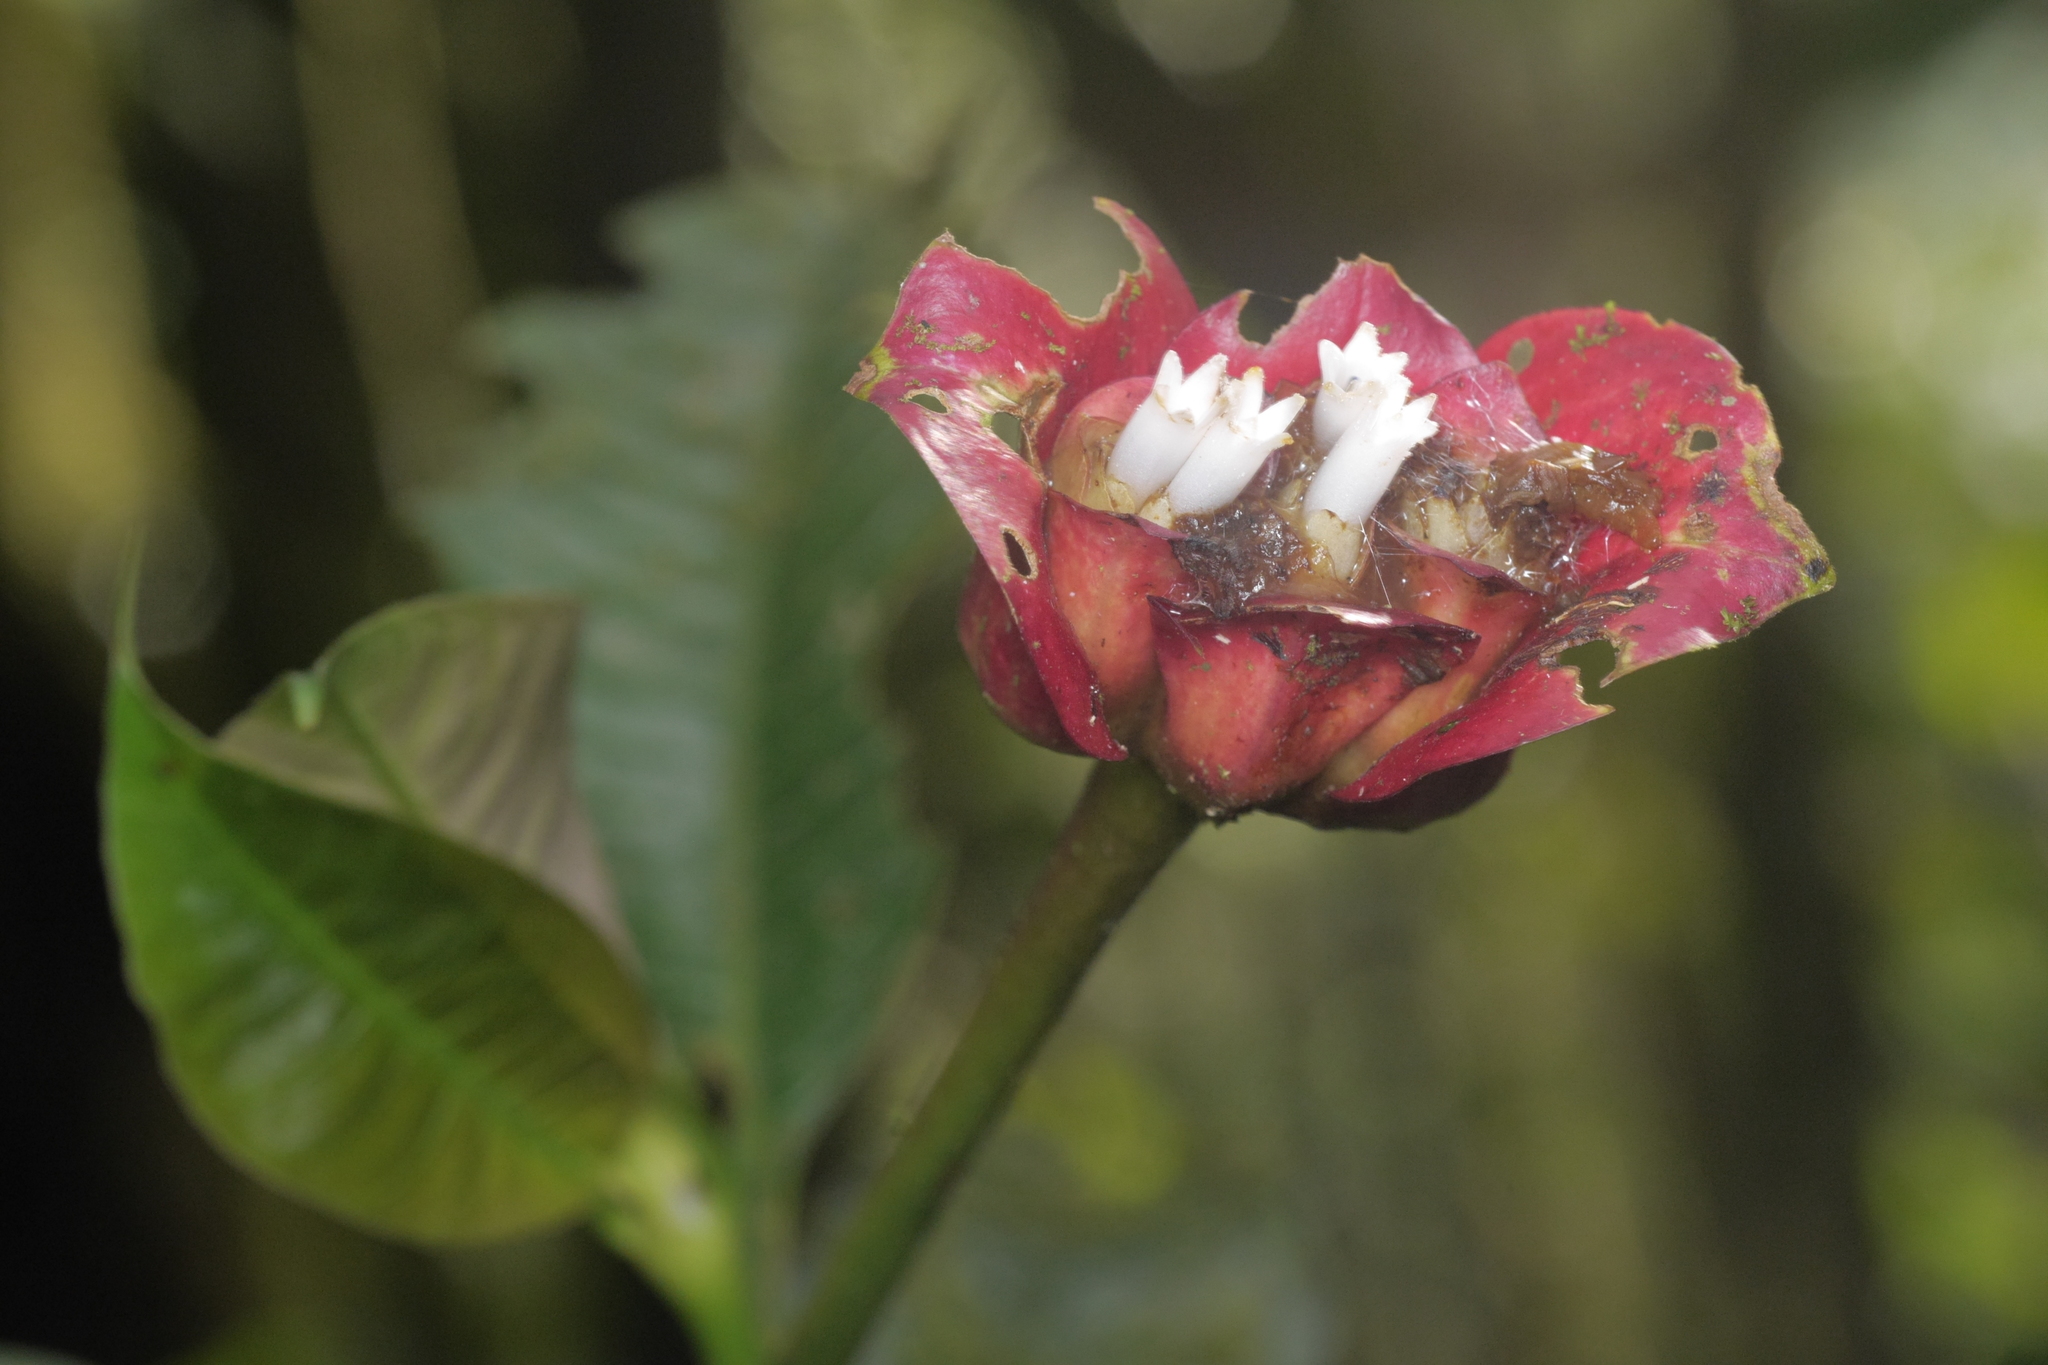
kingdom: Plantae
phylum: Tracheophyta
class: Magnoliopsida
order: Gentianales
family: Rubiaceae
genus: Palicourea
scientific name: Palicourea elata
